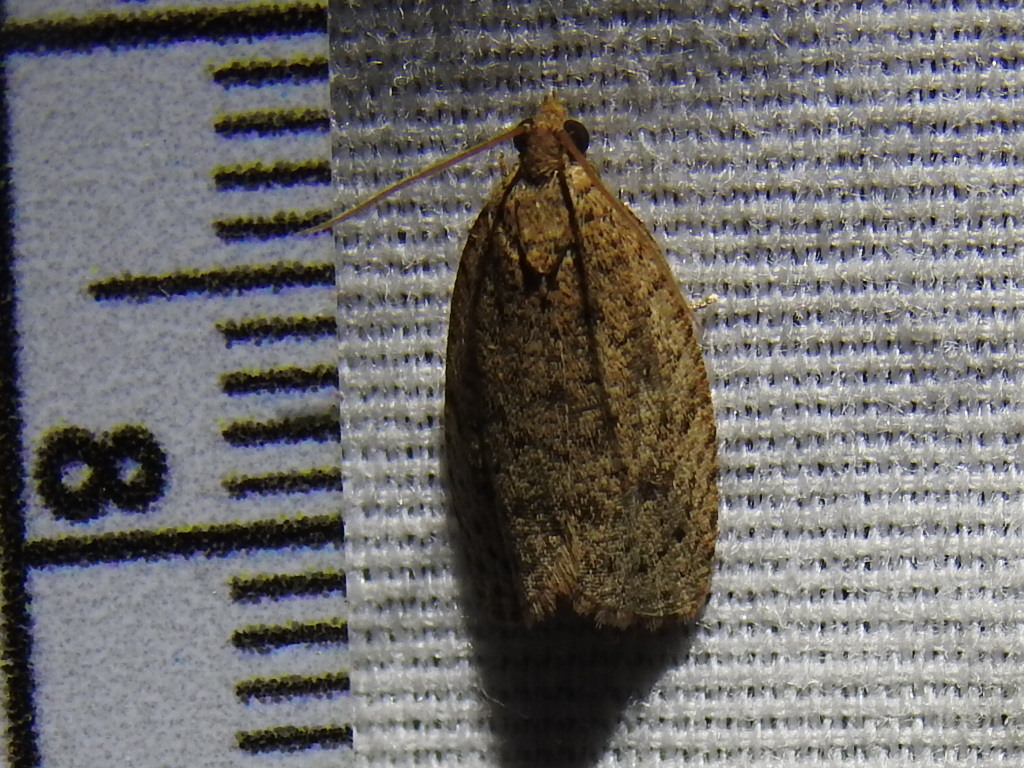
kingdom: Animalia
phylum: Arthropoda
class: Insecta
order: Lepidoptera
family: Tortricidae
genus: Phaecasiophora
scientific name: Phaecasiophora inspersa
